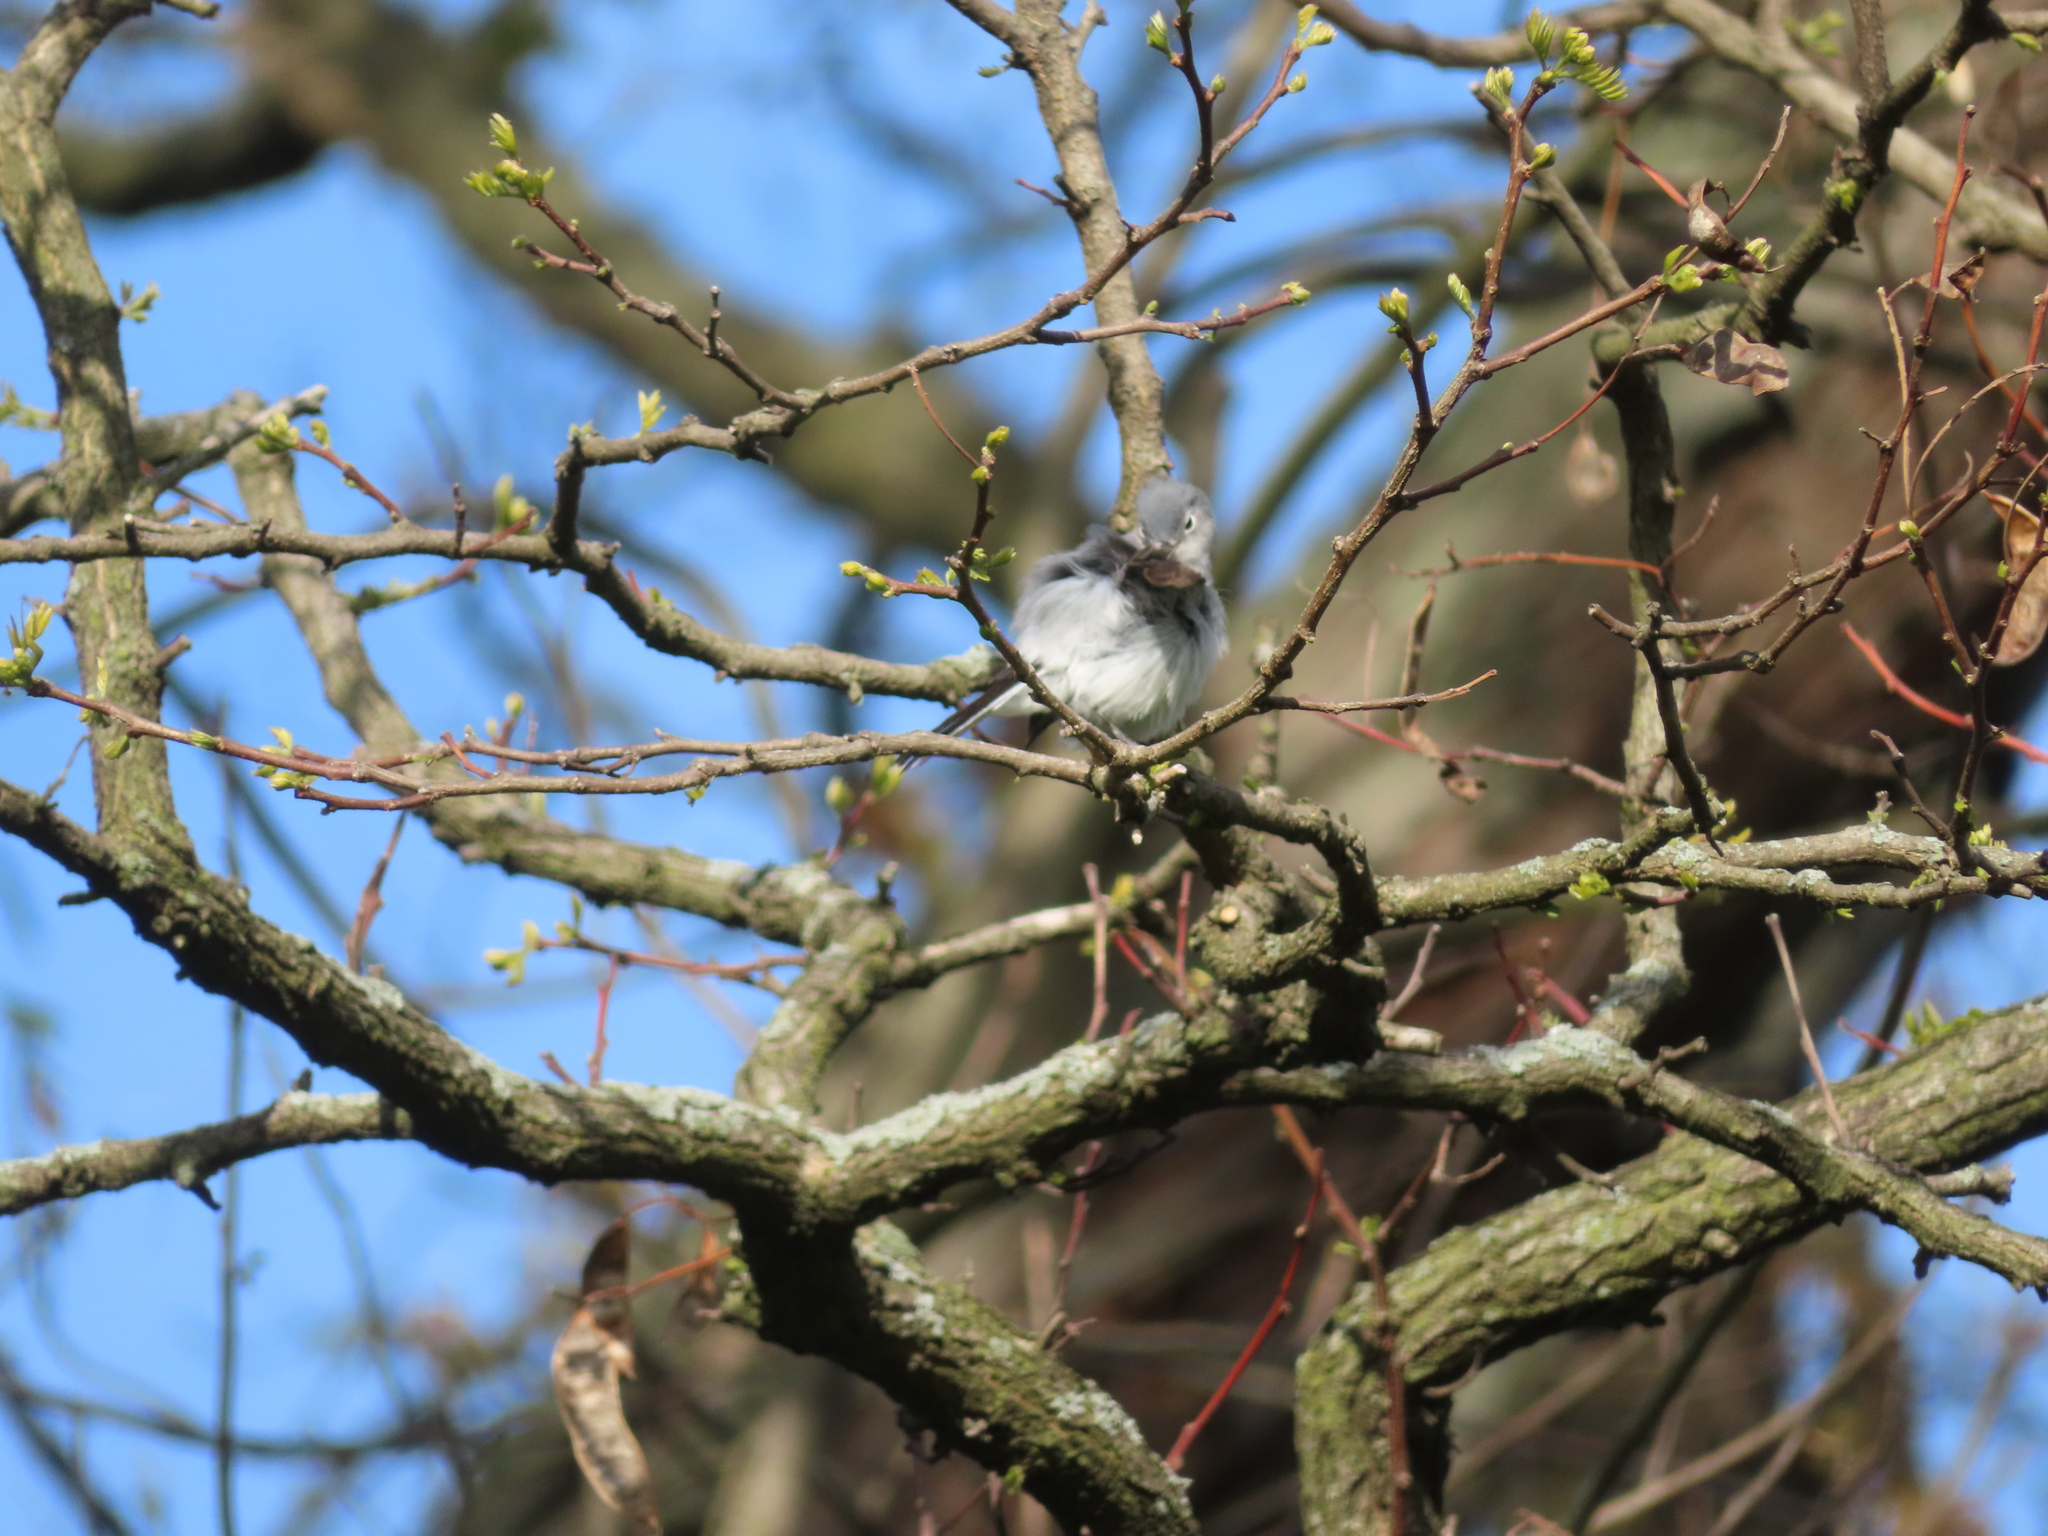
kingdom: Animalia
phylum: Chordata
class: Aves
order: Passeriformes
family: Polioptilidae
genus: Polioptila
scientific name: Polioptila caerulea
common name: Blue-gray gnatcatcher
